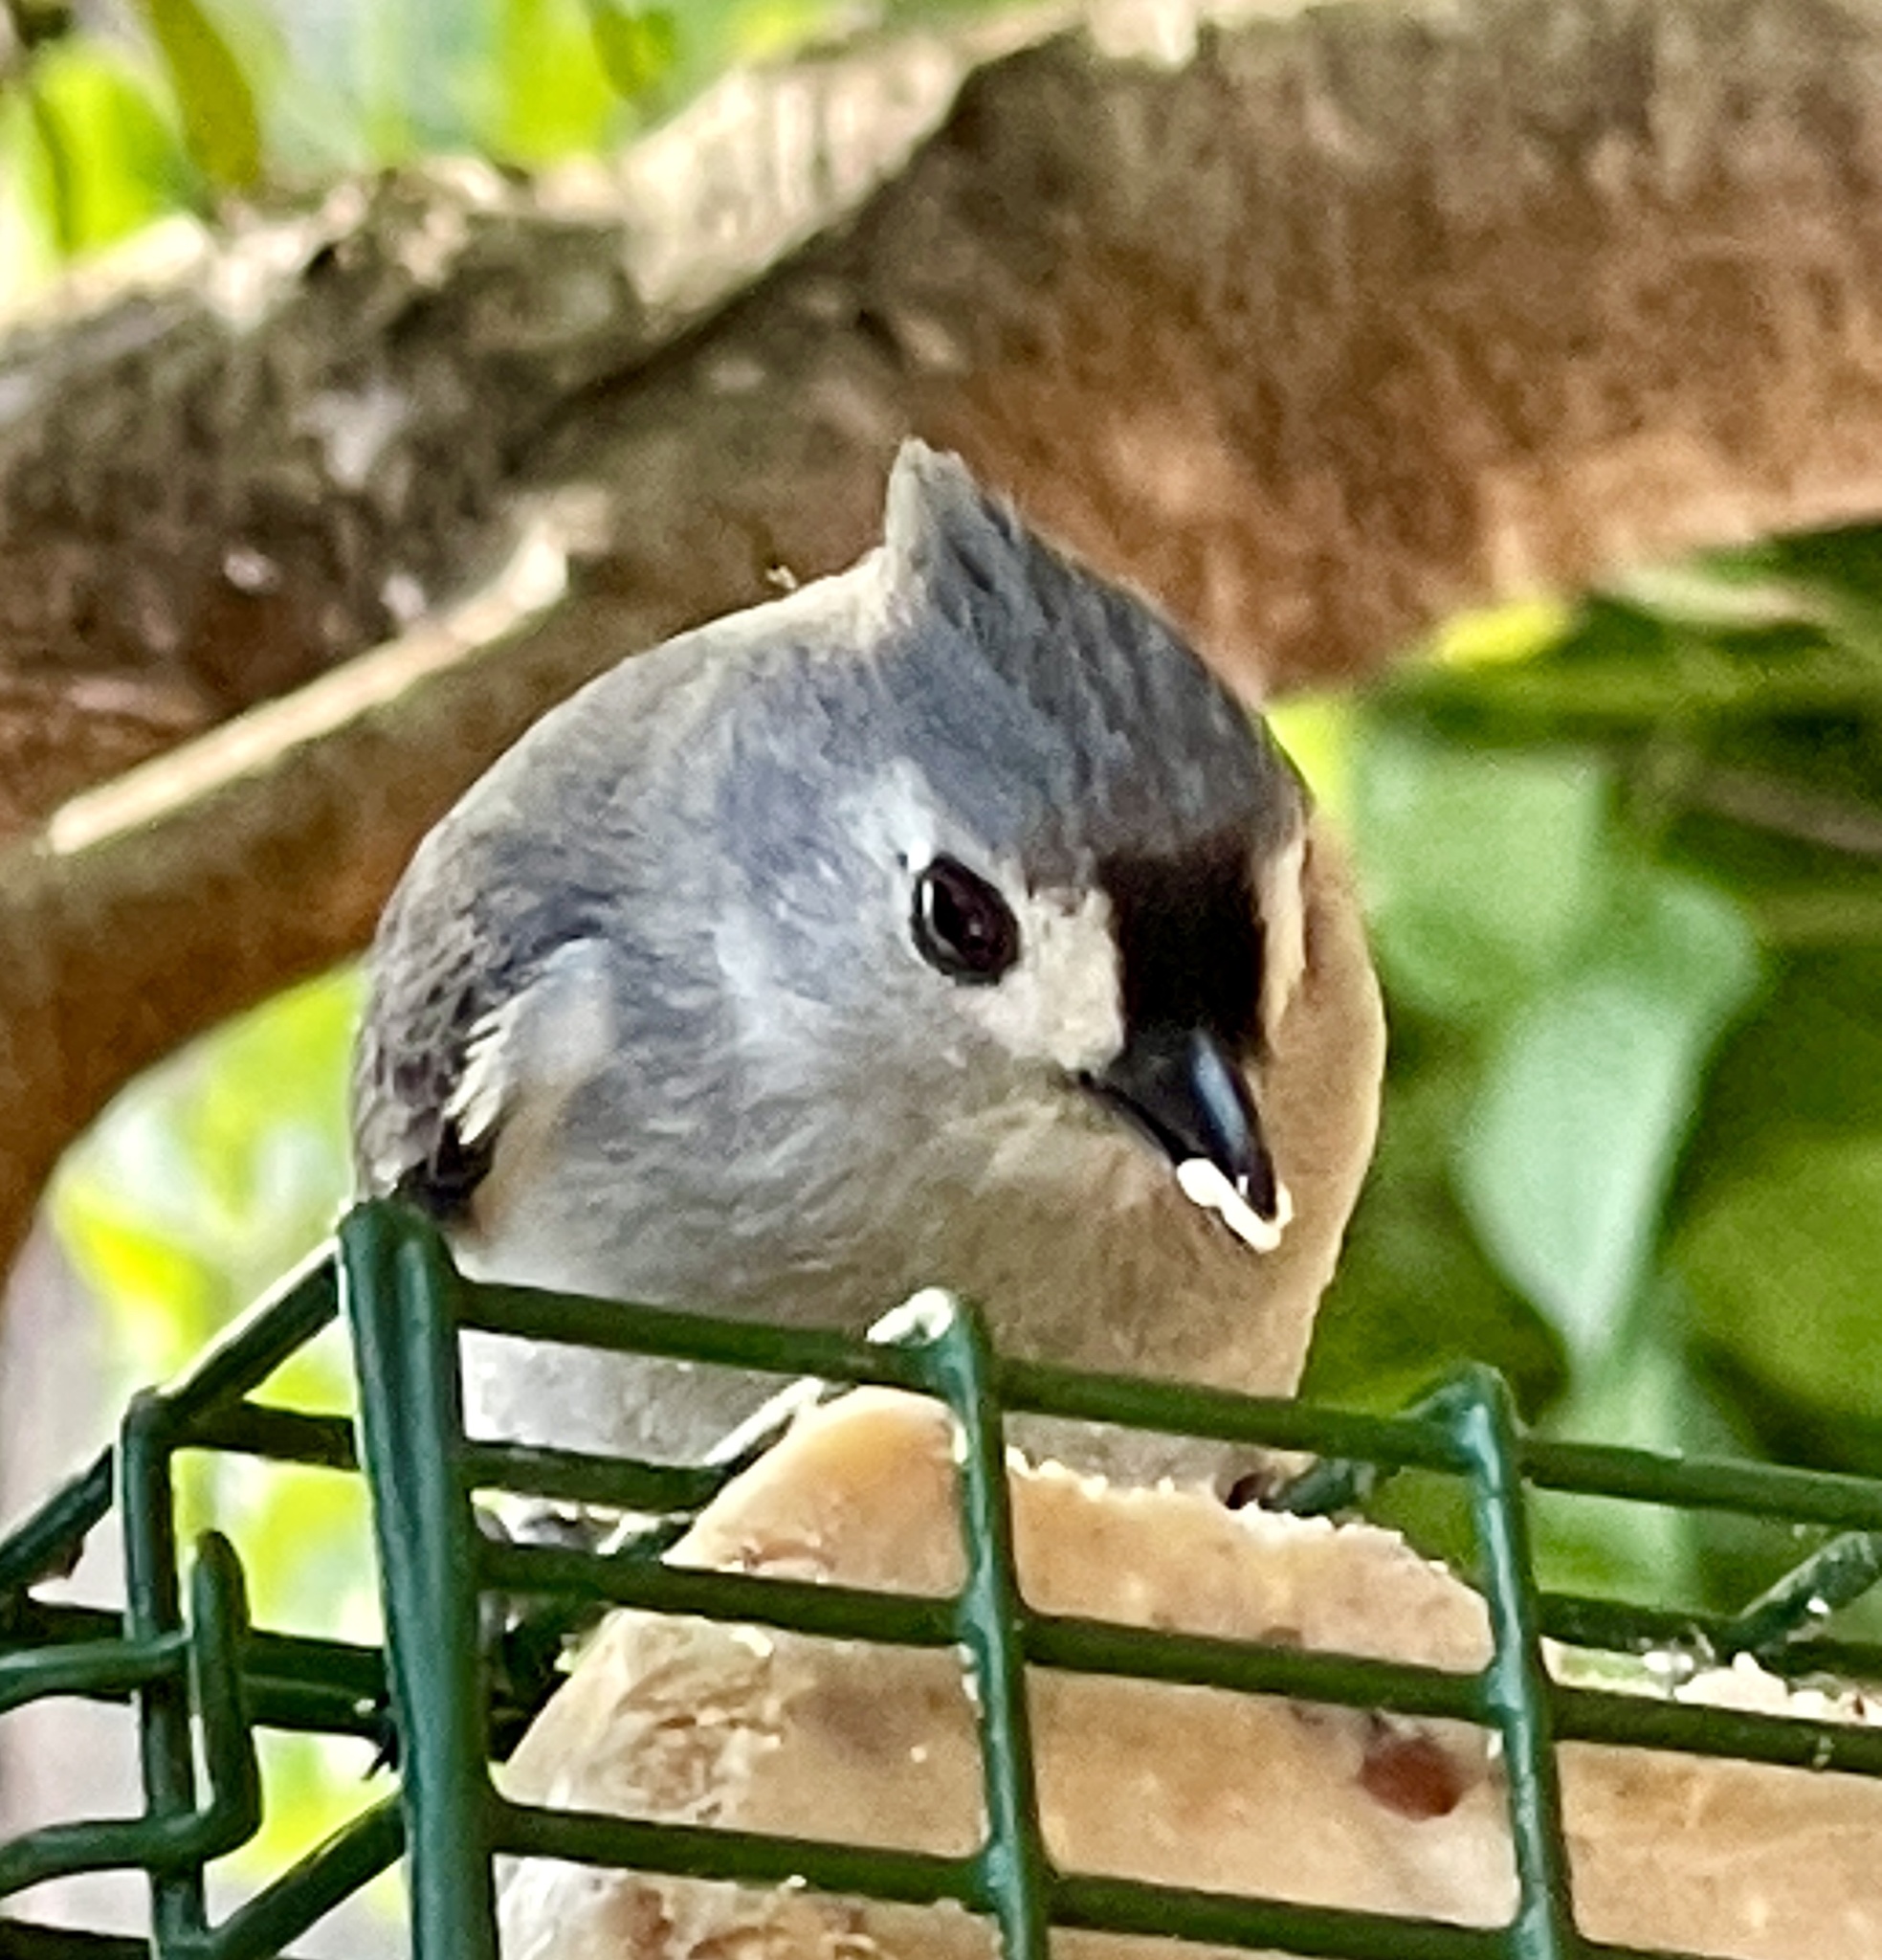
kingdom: Animalia
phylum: Chordata
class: Aves
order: Passeriformes
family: Paridae
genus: Baeolophus
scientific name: Baeolophus bicolor
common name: Tufted titmouse
